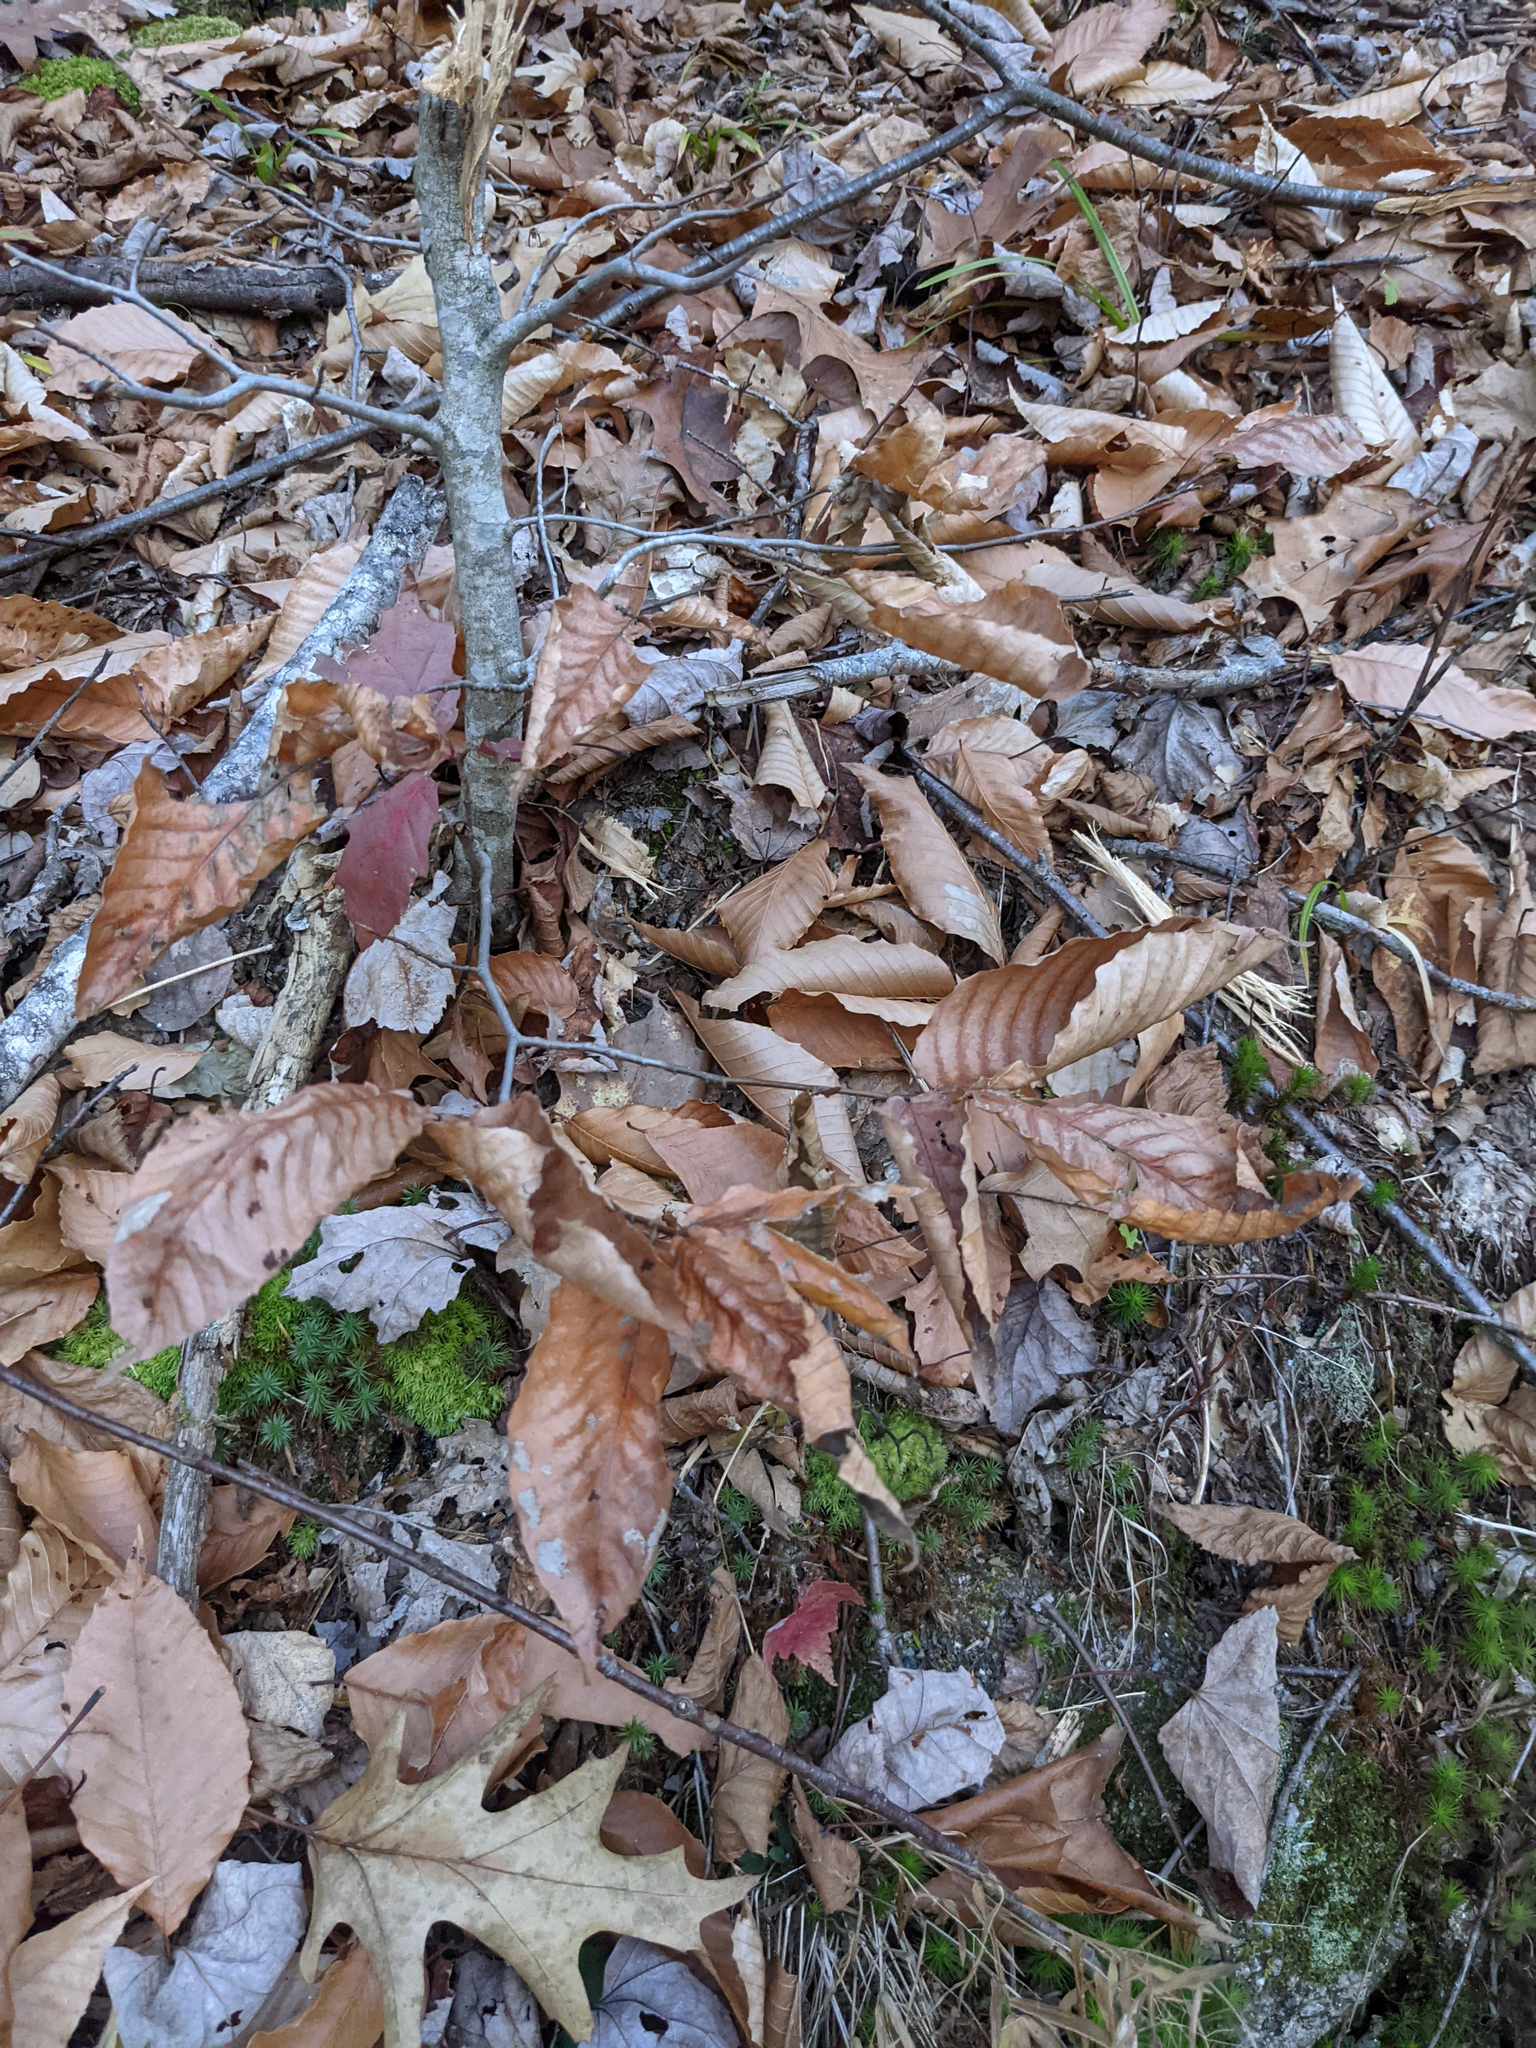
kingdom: Plantae
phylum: Tracheophyta
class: Magnoliopsida
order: Fagales
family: Fagaceae
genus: Fagus
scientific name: Fagus grandifolia
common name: American beech
